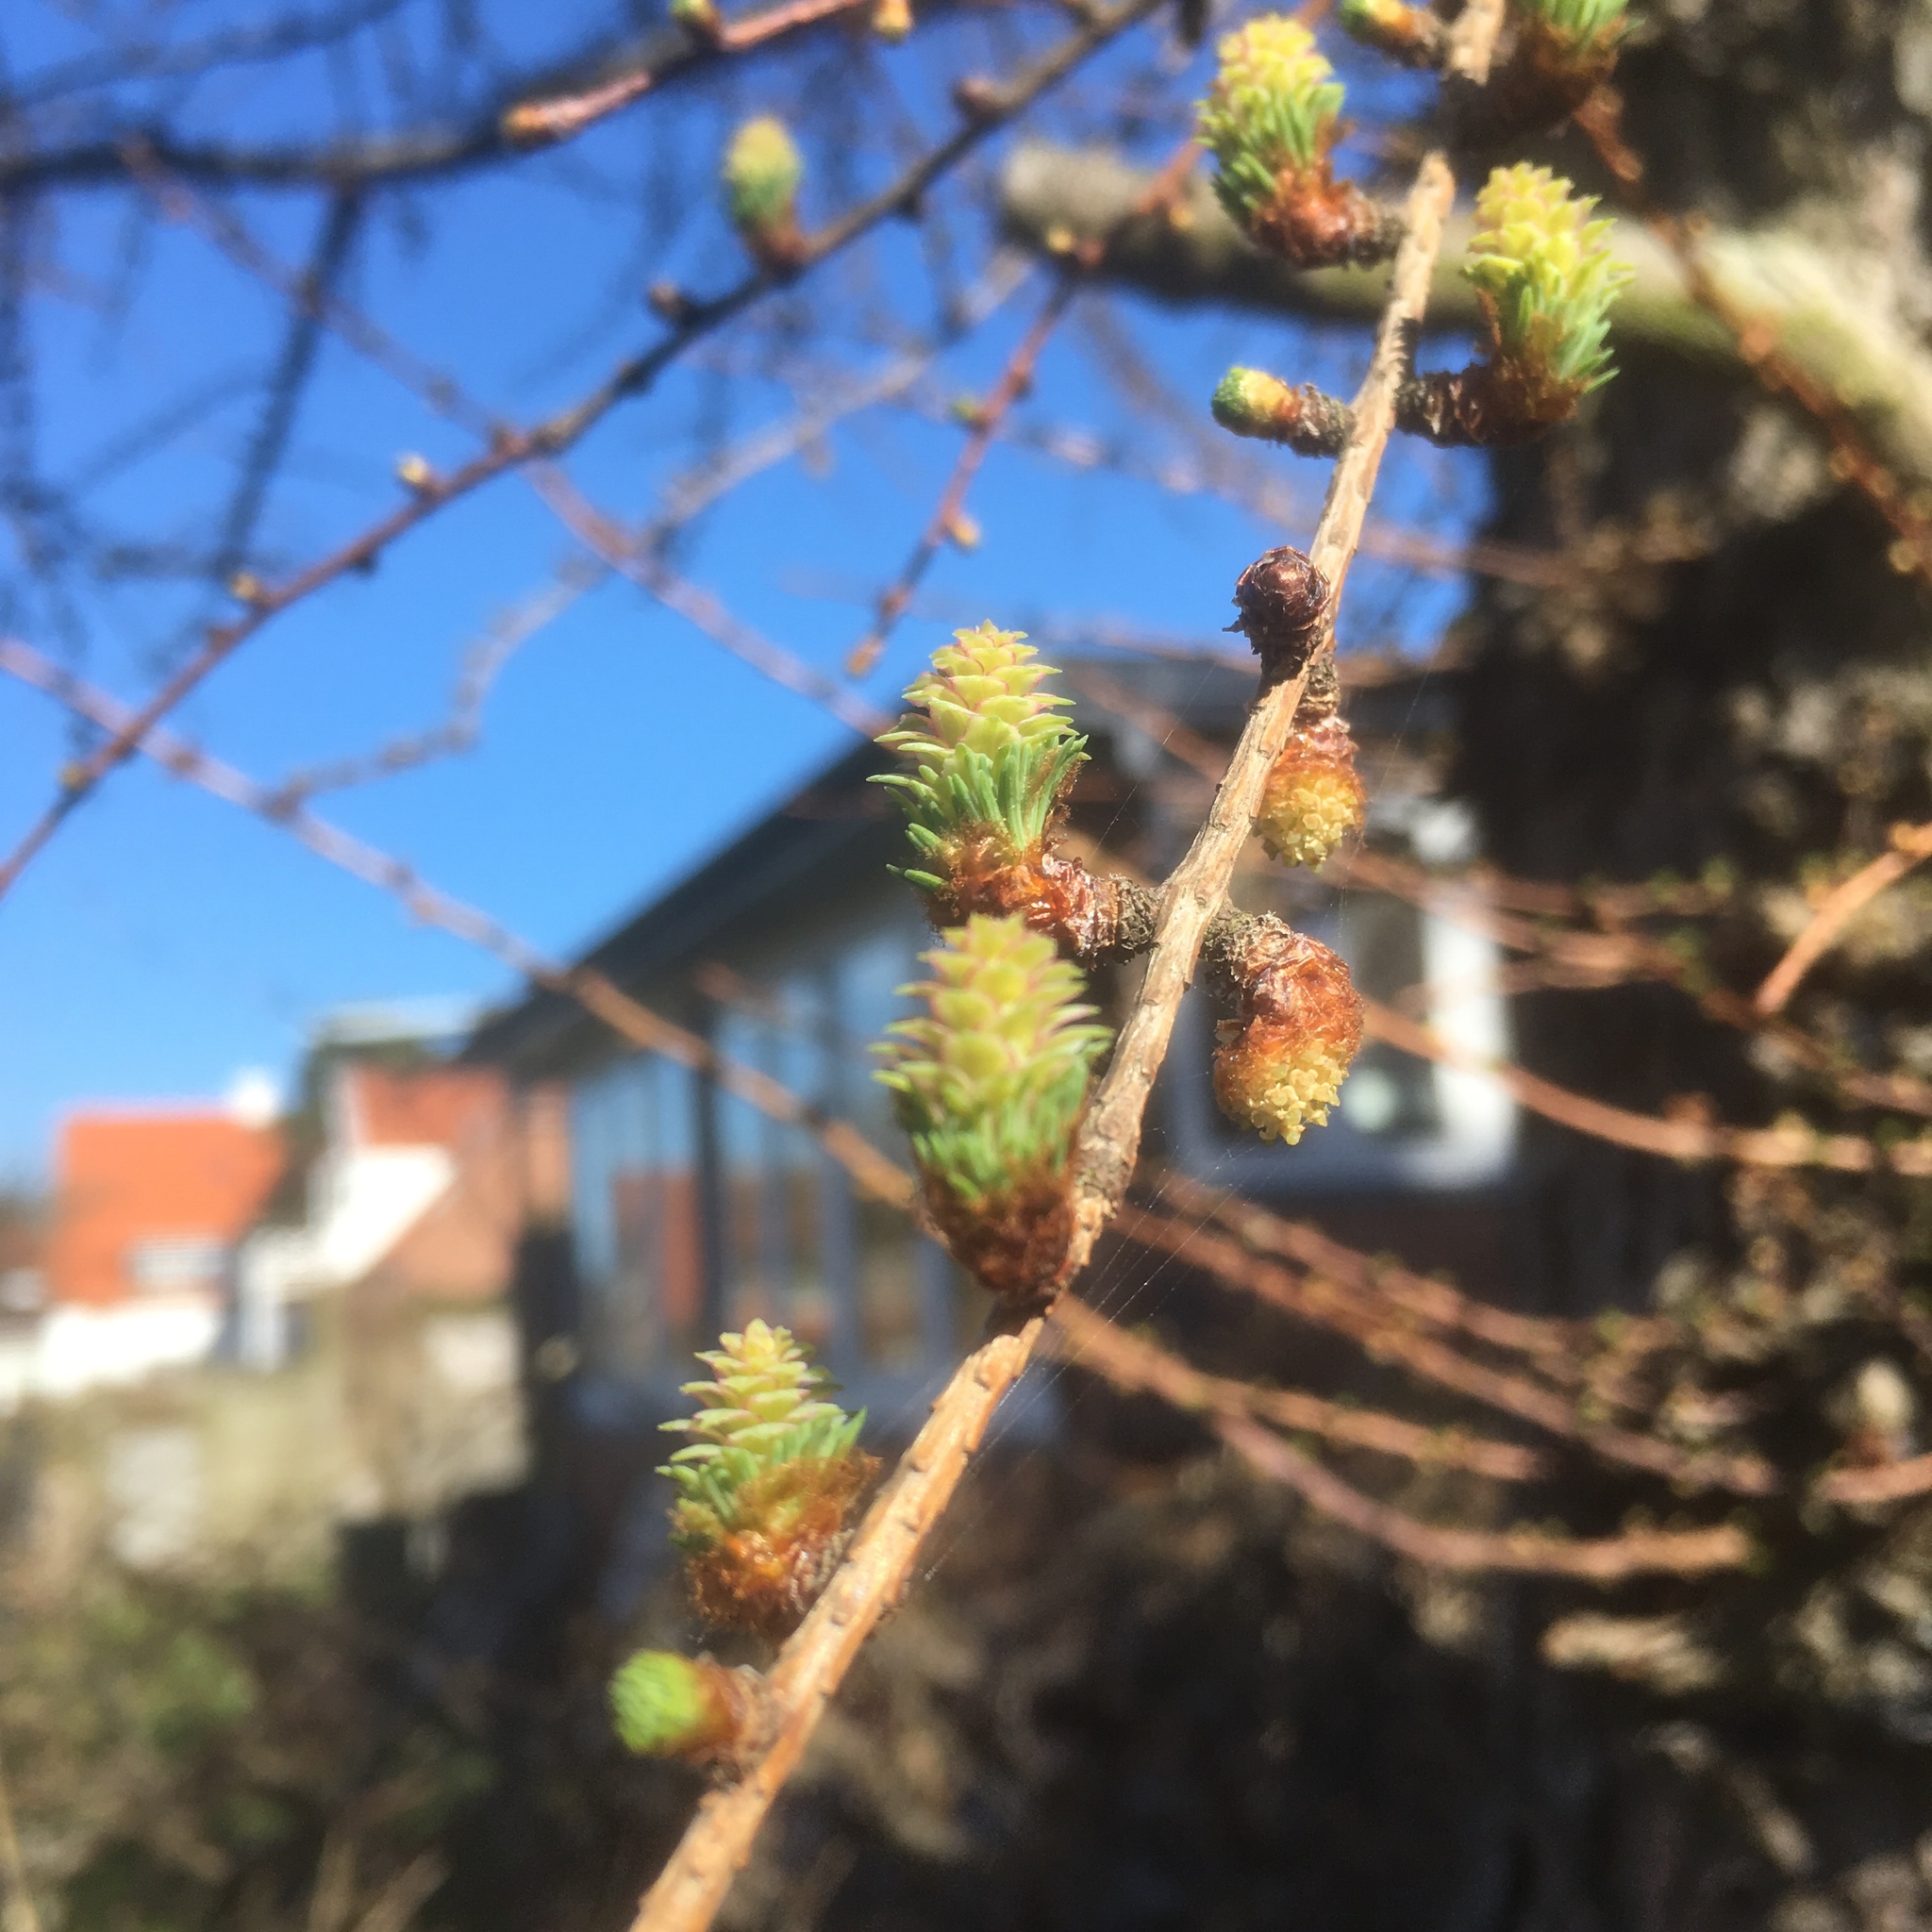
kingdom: Plantae
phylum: Tracheophyta
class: Pinopsida
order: Pinales
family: Pinaceae
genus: Larix
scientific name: Larix decidua
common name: European larch
